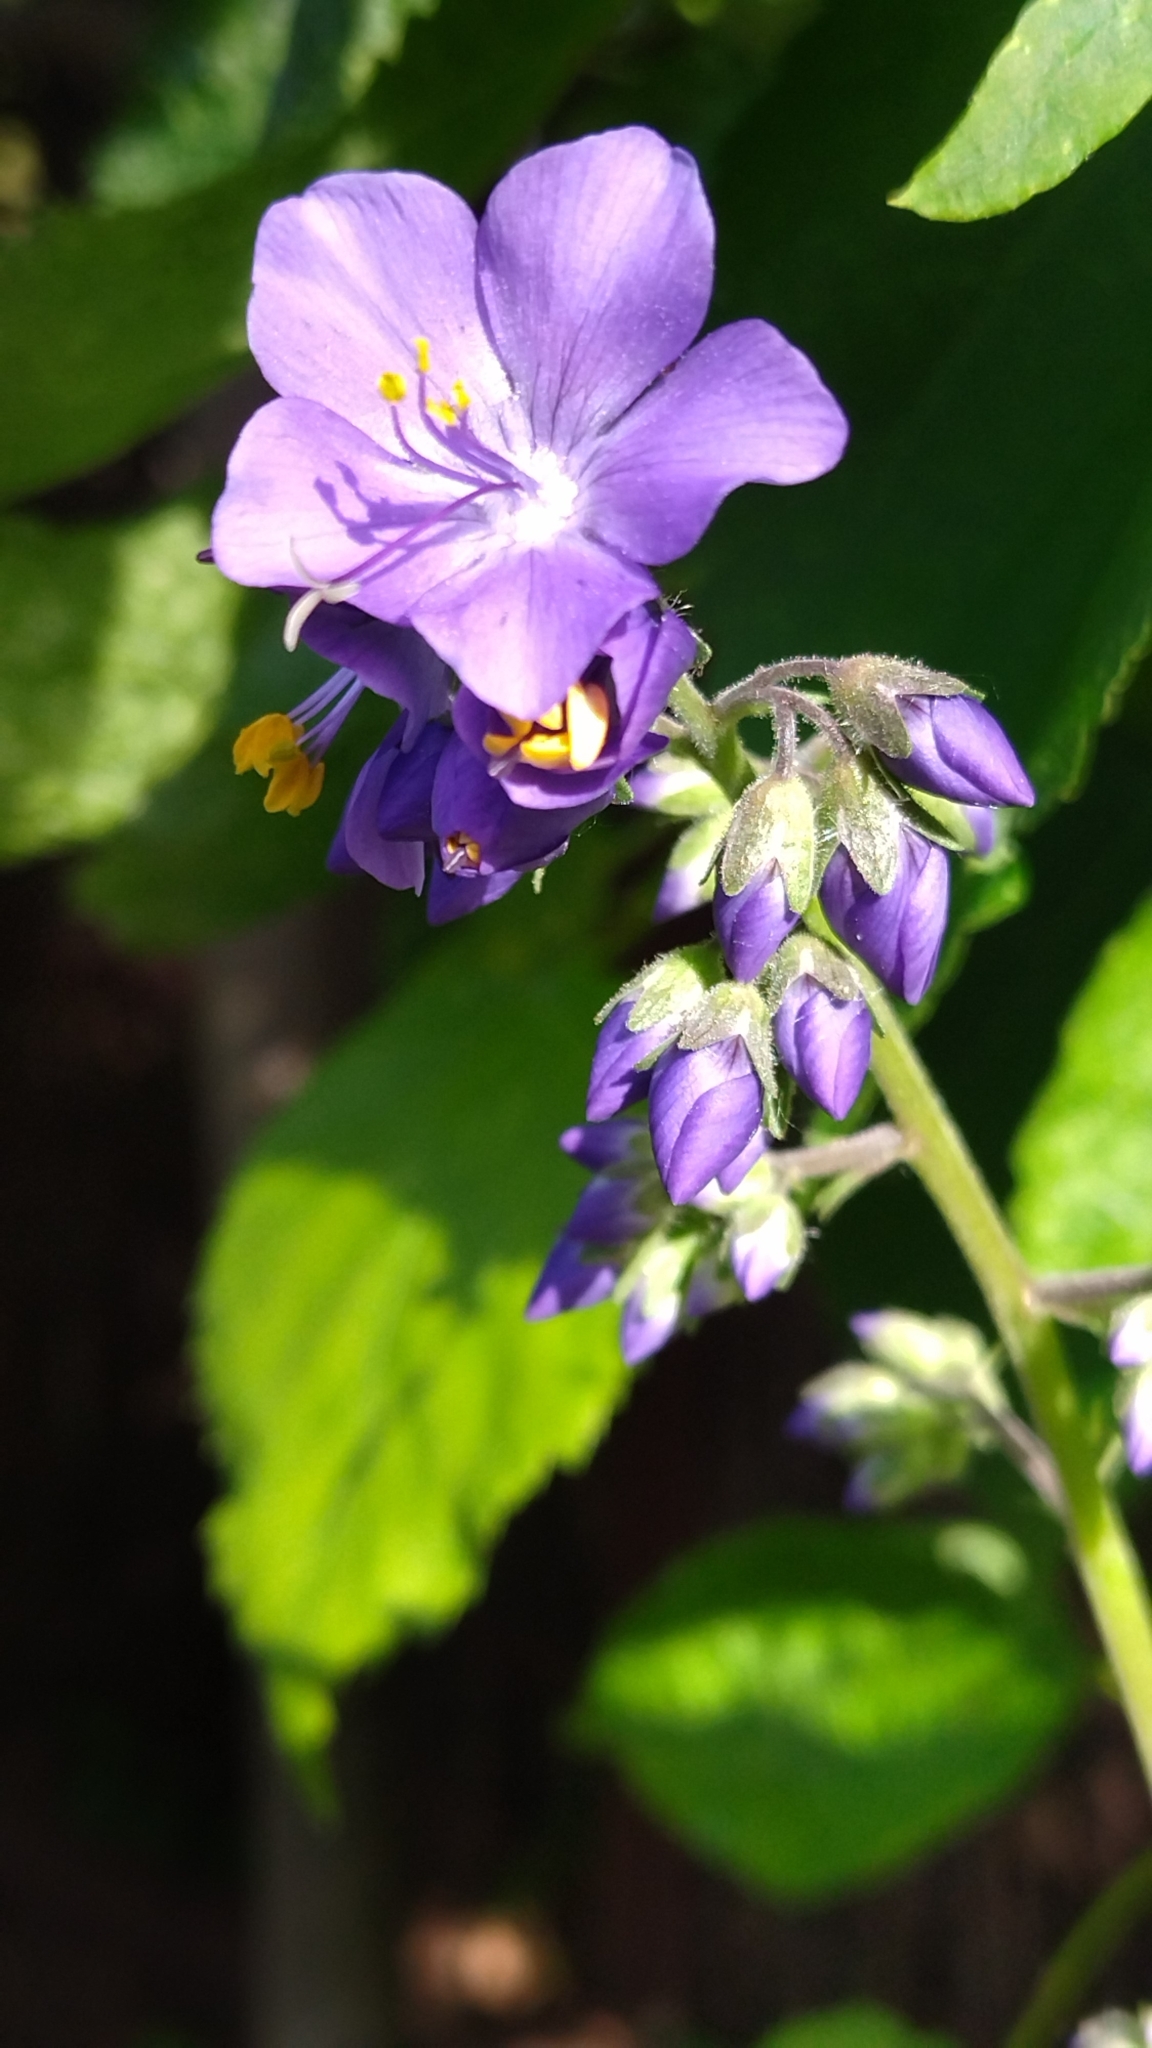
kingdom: Plantae
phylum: Tracheophyta
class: Magnoliopsida
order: Ericales
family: Polemoniaceae
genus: Polemonium
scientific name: Polemonium caeruleum
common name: Jacob's-ladder
